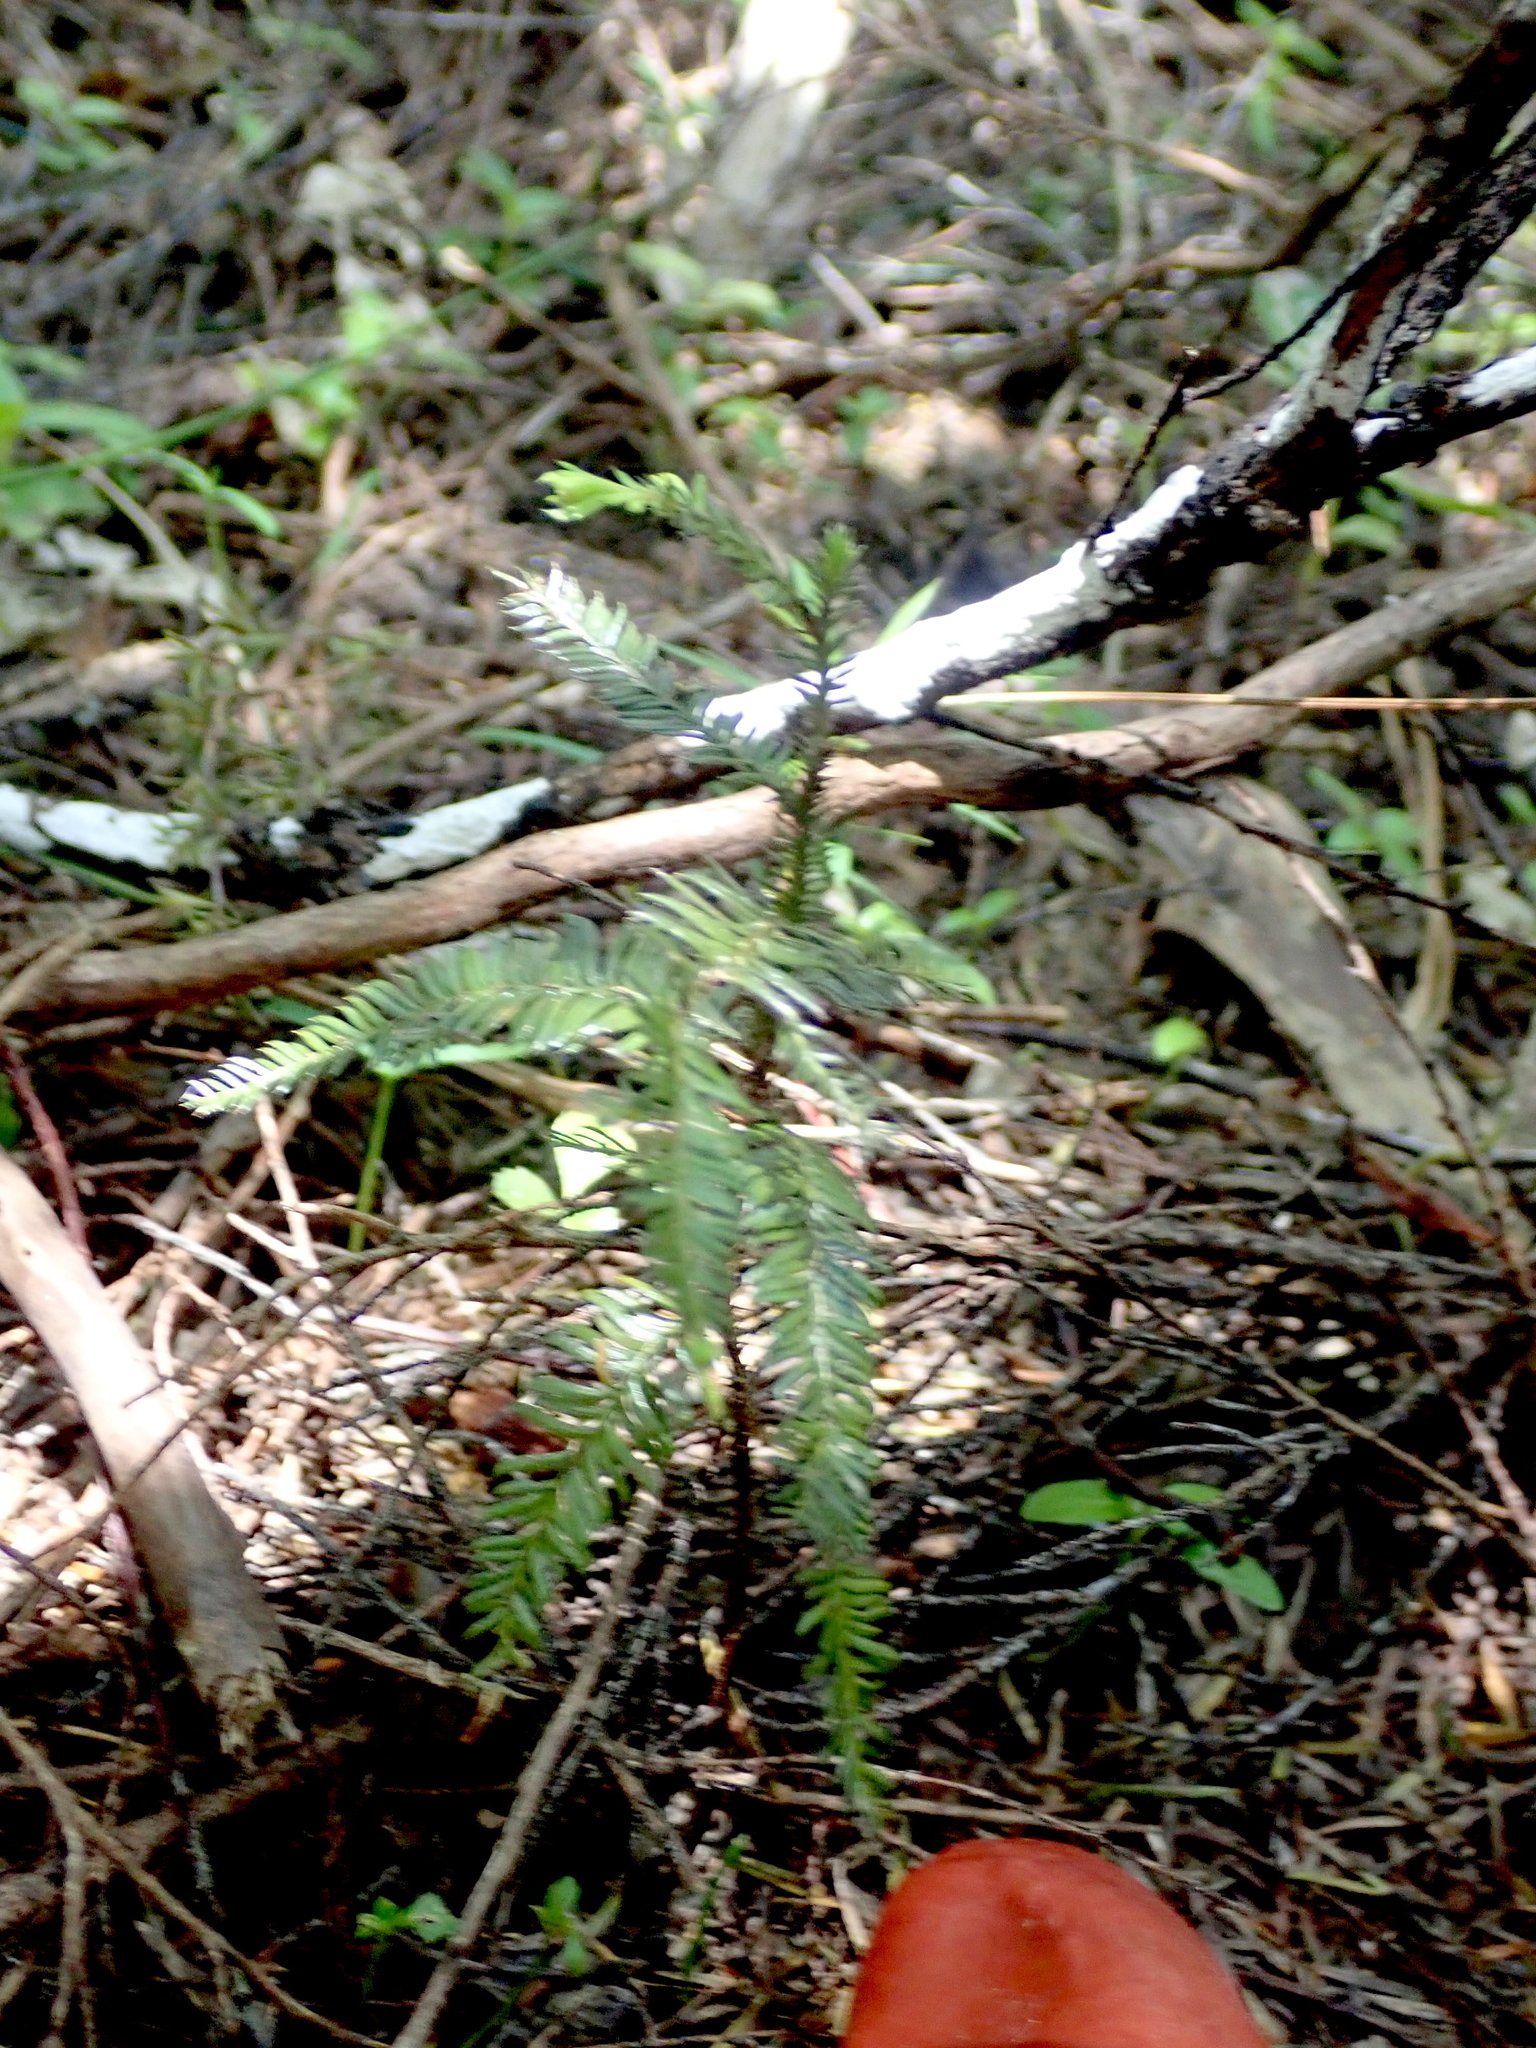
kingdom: Plantae
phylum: Tracheophyta
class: Pinopsida
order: Pinales
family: Podocarpaceae
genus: Dacrycarpus
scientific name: Dacrycarpus dacrydioides
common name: White pine
